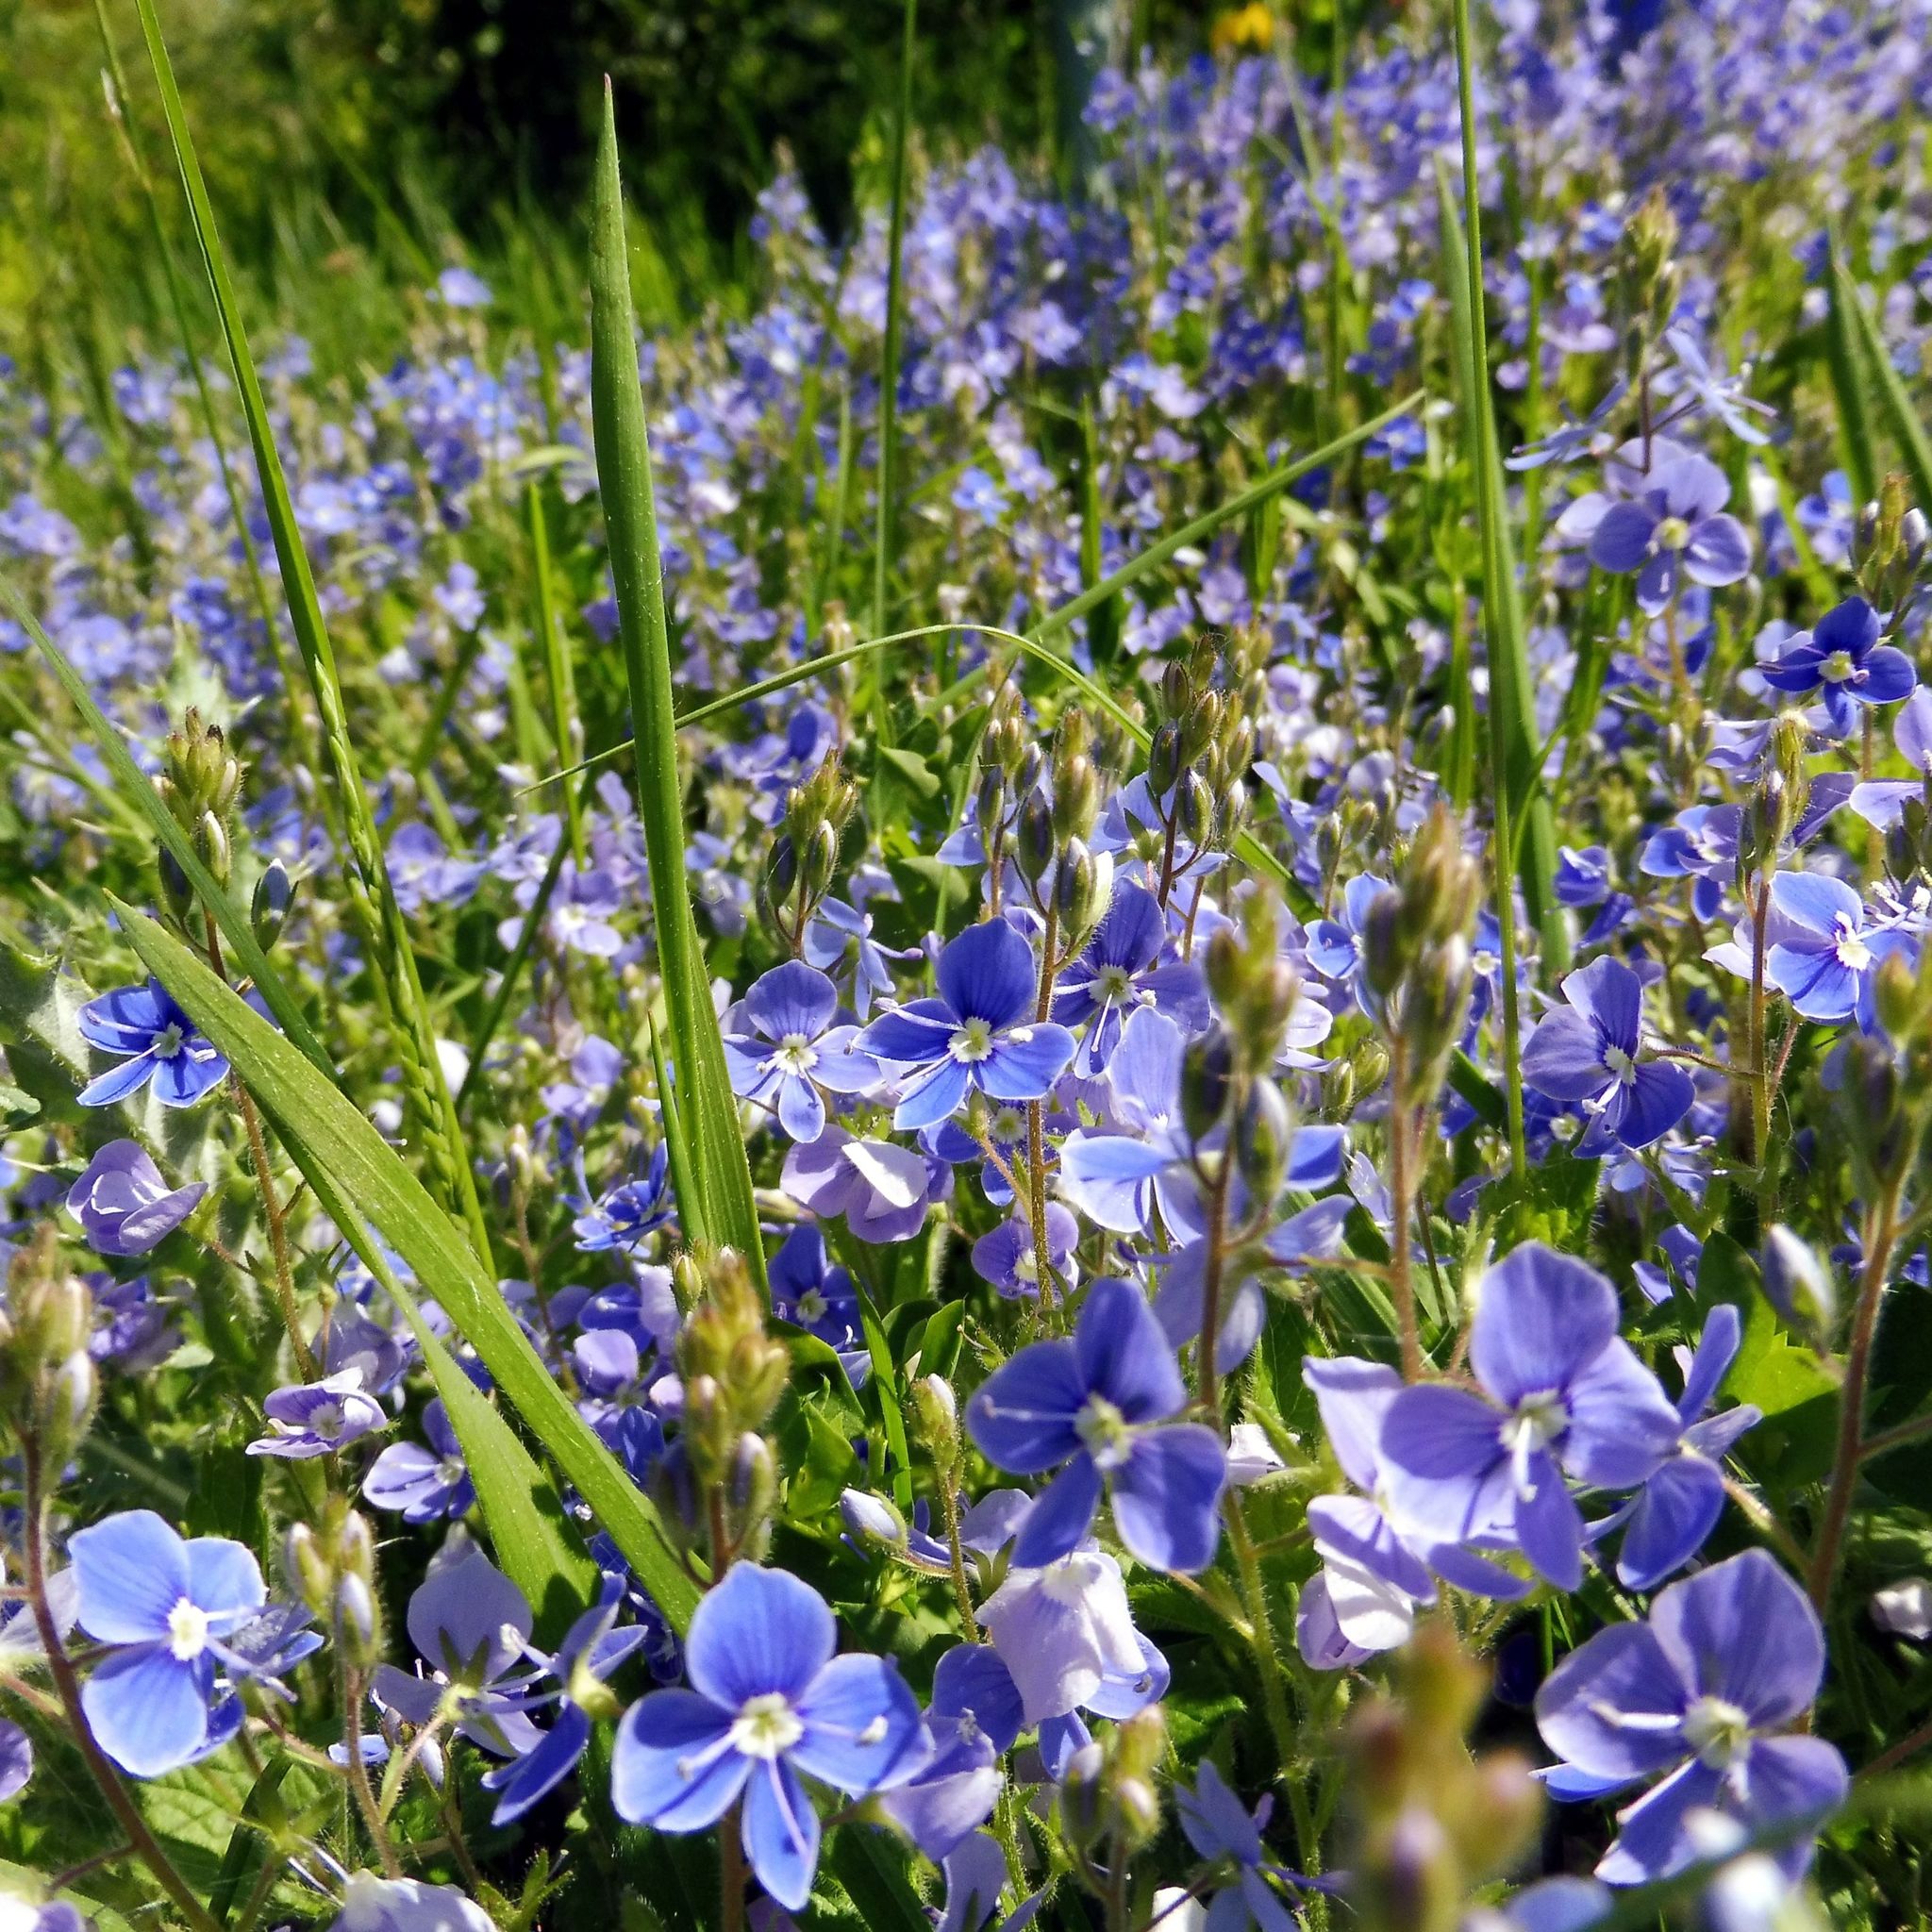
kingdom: Plantae
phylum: Tracheophyta
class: Magnoliopsida
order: Lamiales
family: Plantaginaceae
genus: Veronica
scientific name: Veronica chamaedrys
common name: Germander speedwell
